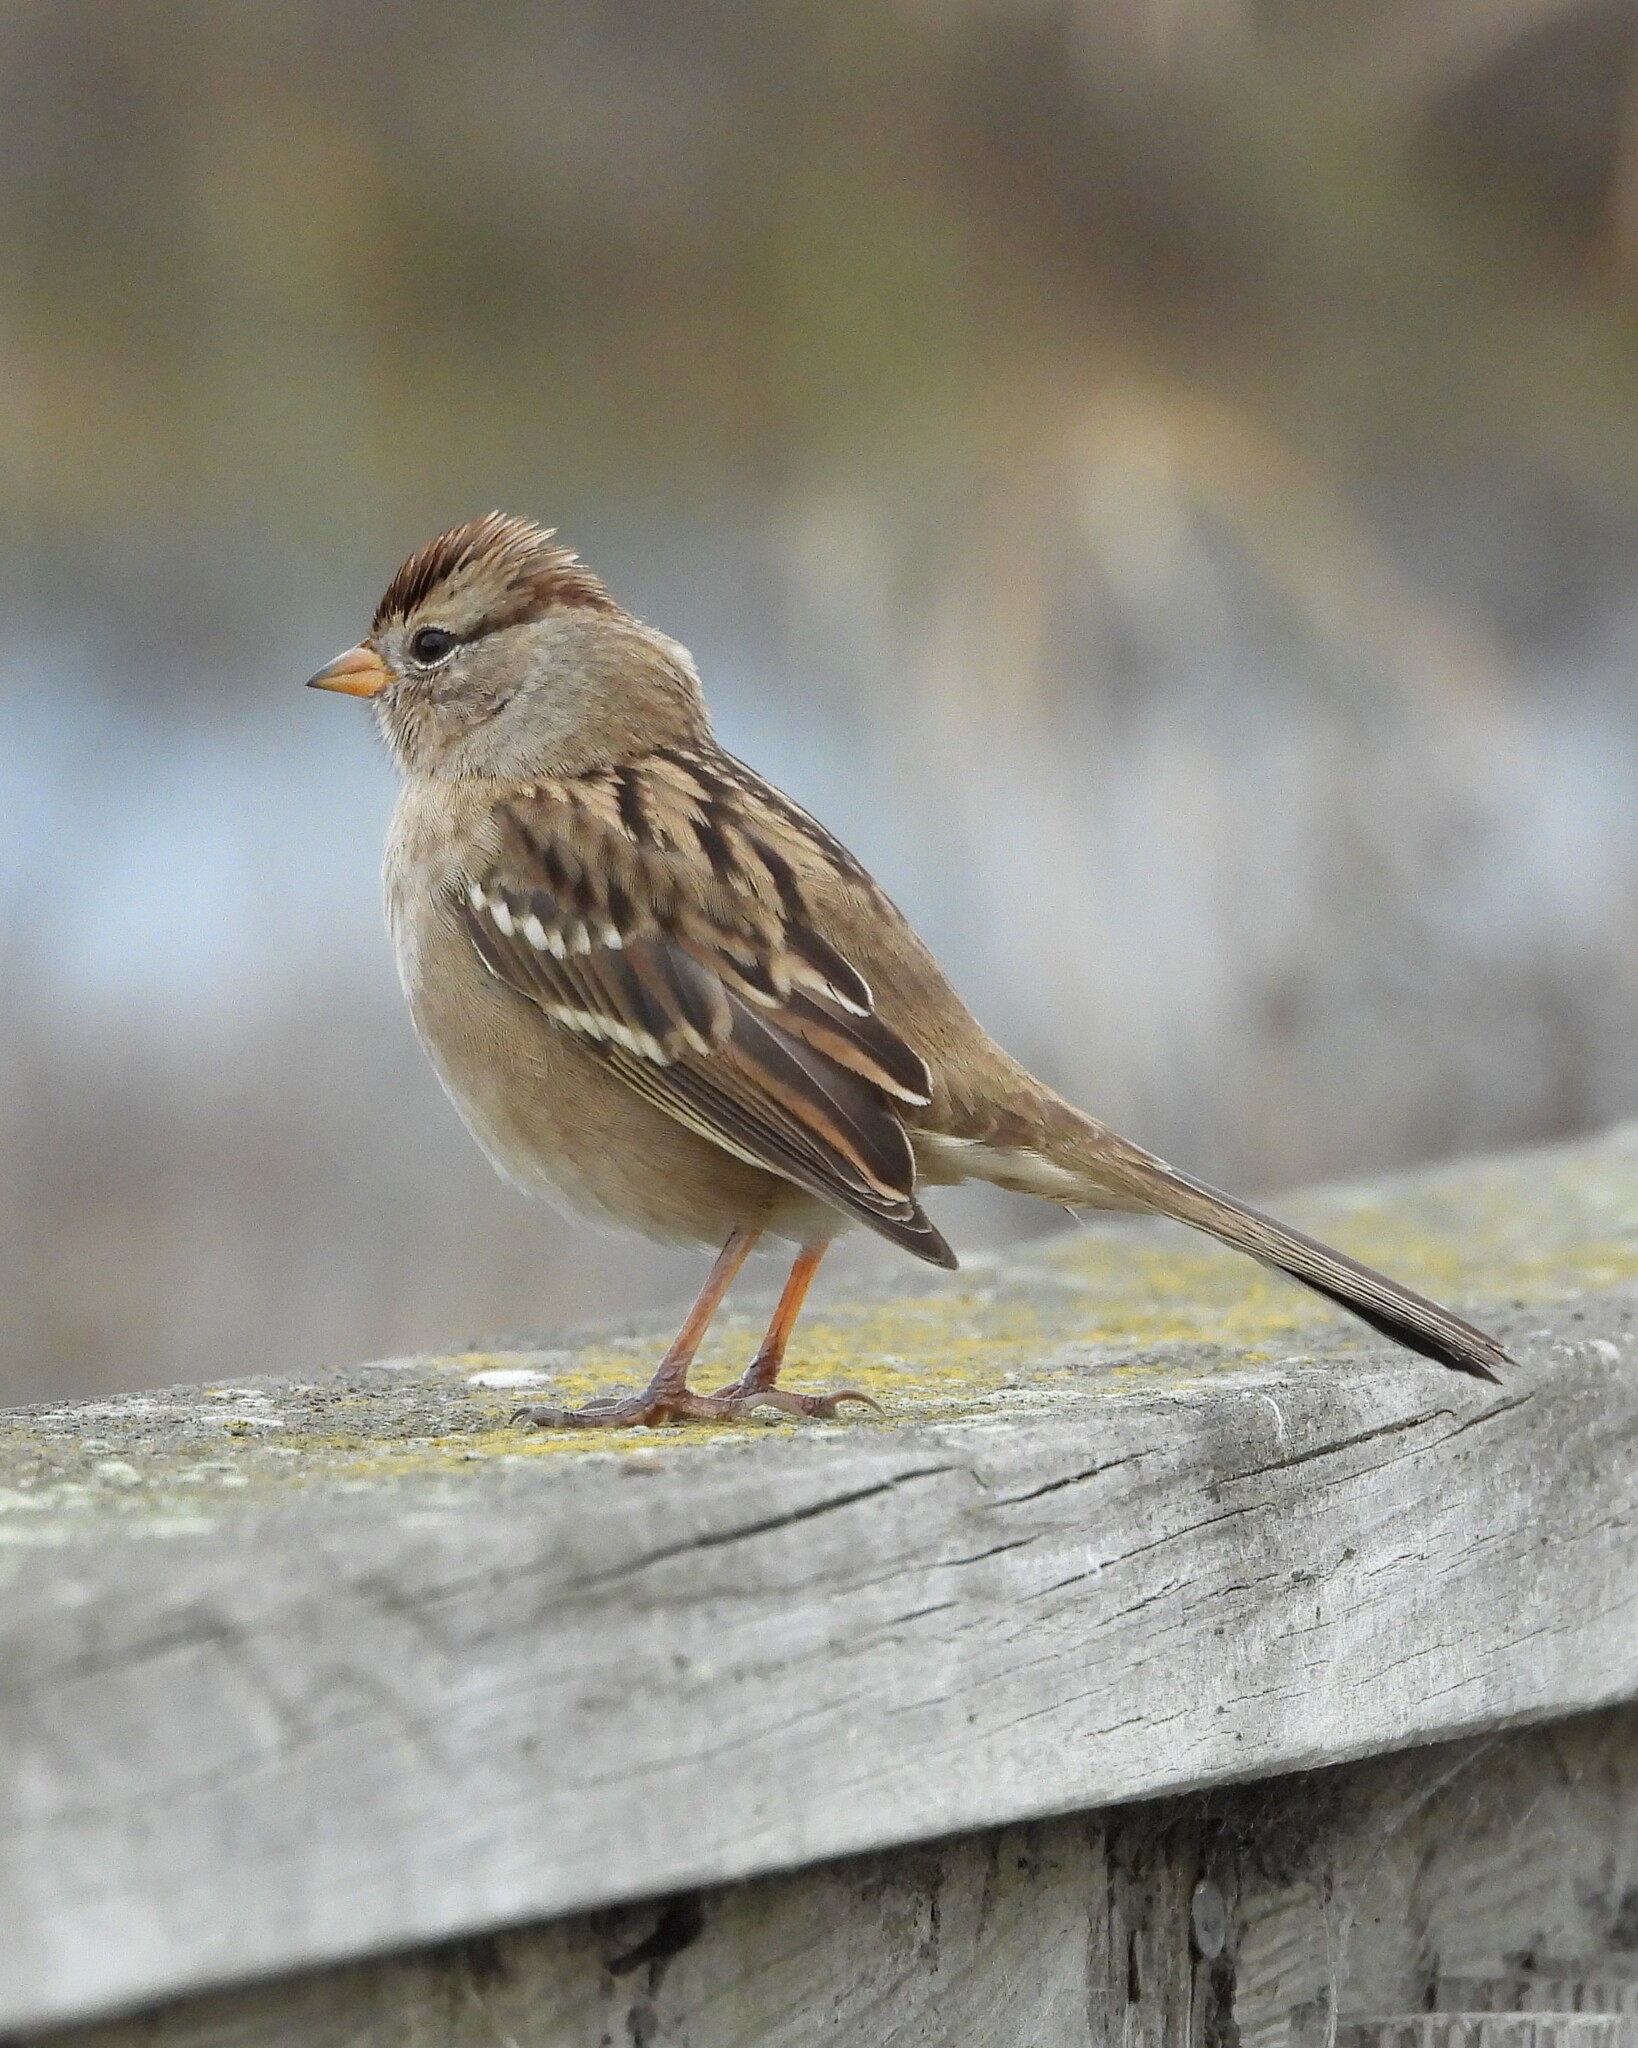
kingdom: Animalia
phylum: Chordata
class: Aves
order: Passeriformes
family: Passerellidae
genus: Zonotrichia
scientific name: Zonotrichia leucophrys
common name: White-crowned sparrow
